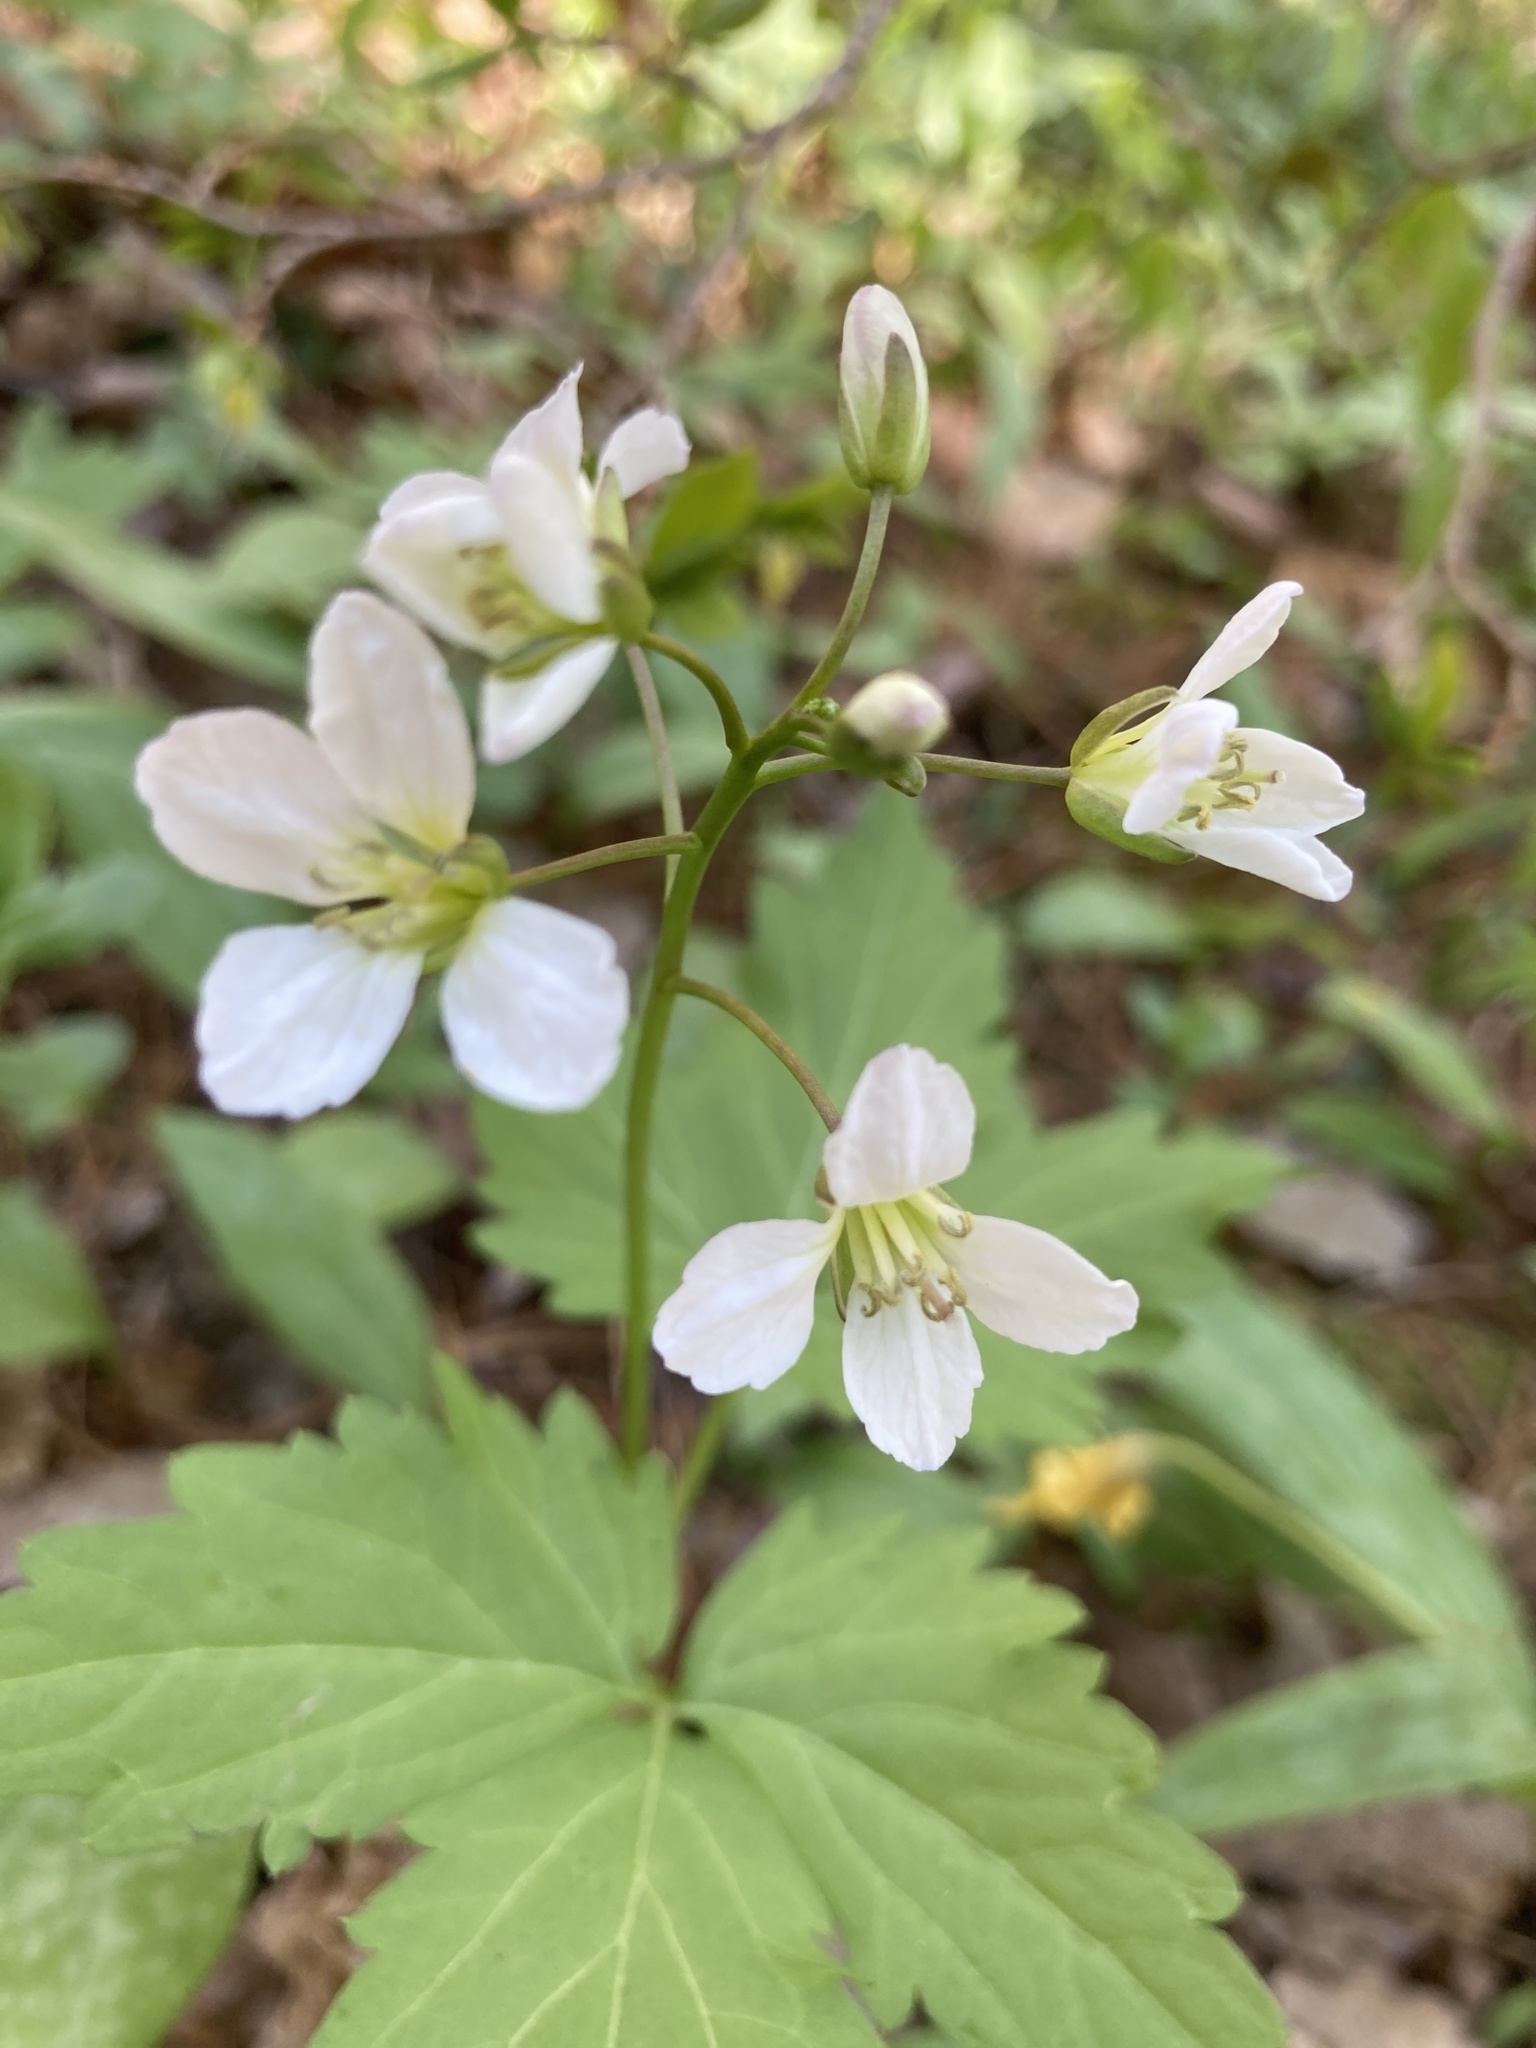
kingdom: Plantae
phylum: Tracheophyta
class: Magnoliopsida
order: Brassicales
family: Brassicaceae
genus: Cardamine
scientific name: Cardamine diphylla
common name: Broad-leaved toothwort
